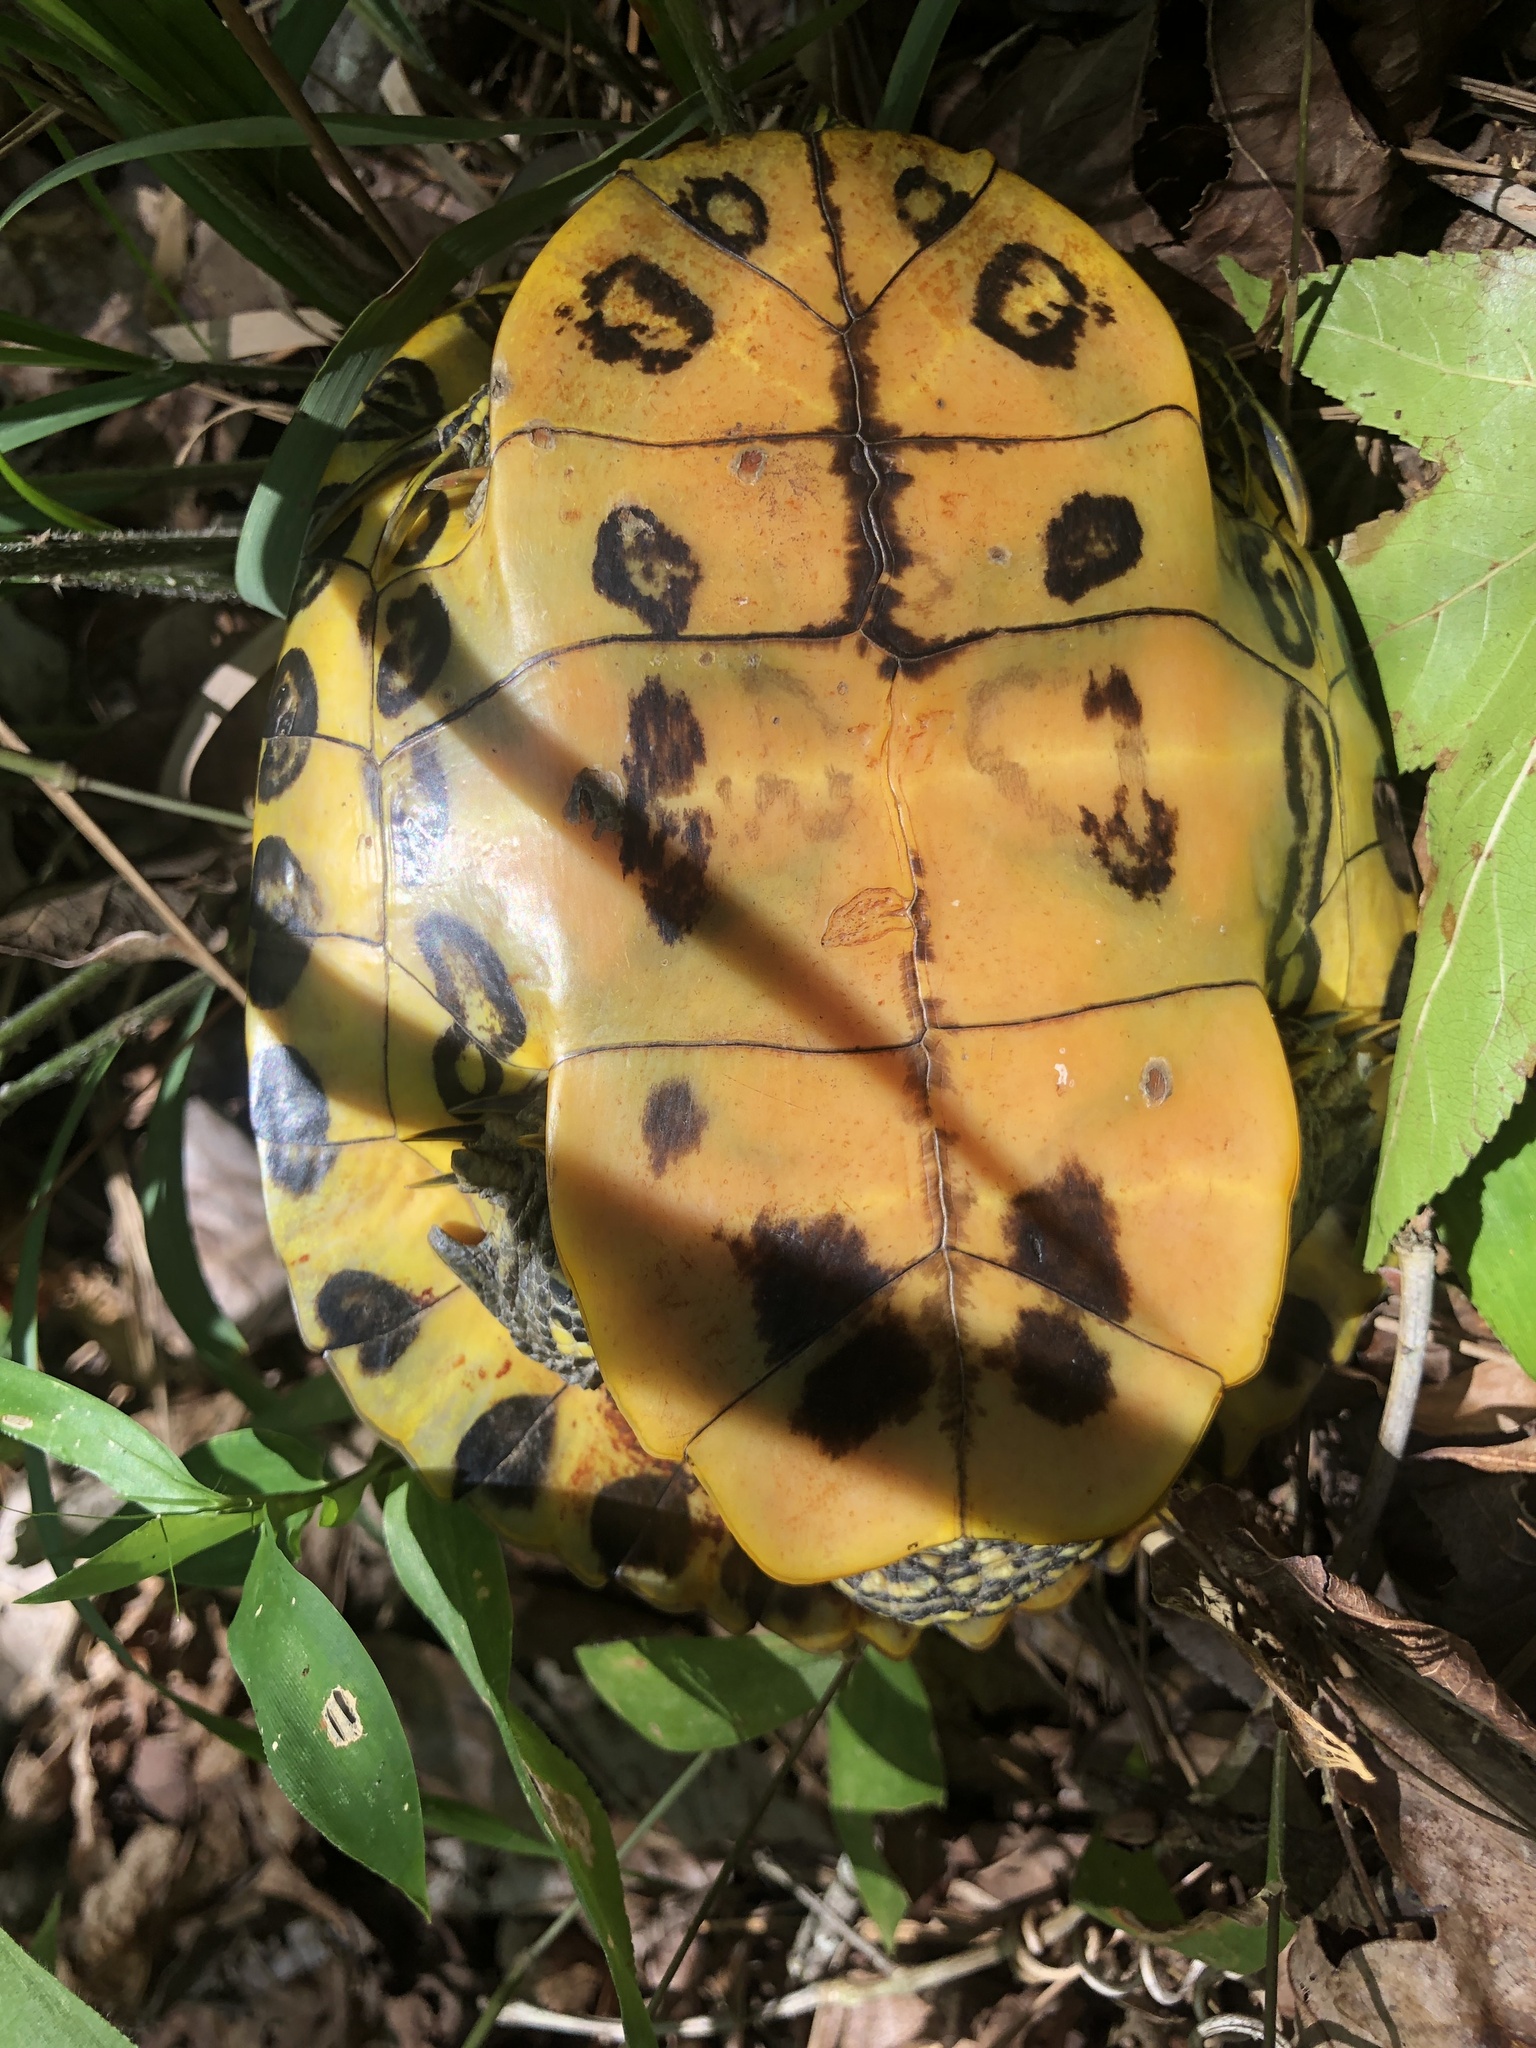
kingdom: Animalia
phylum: Chordata
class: Testudines
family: Emydidae
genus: Trachemys
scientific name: Trachemys scripta
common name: Slider
